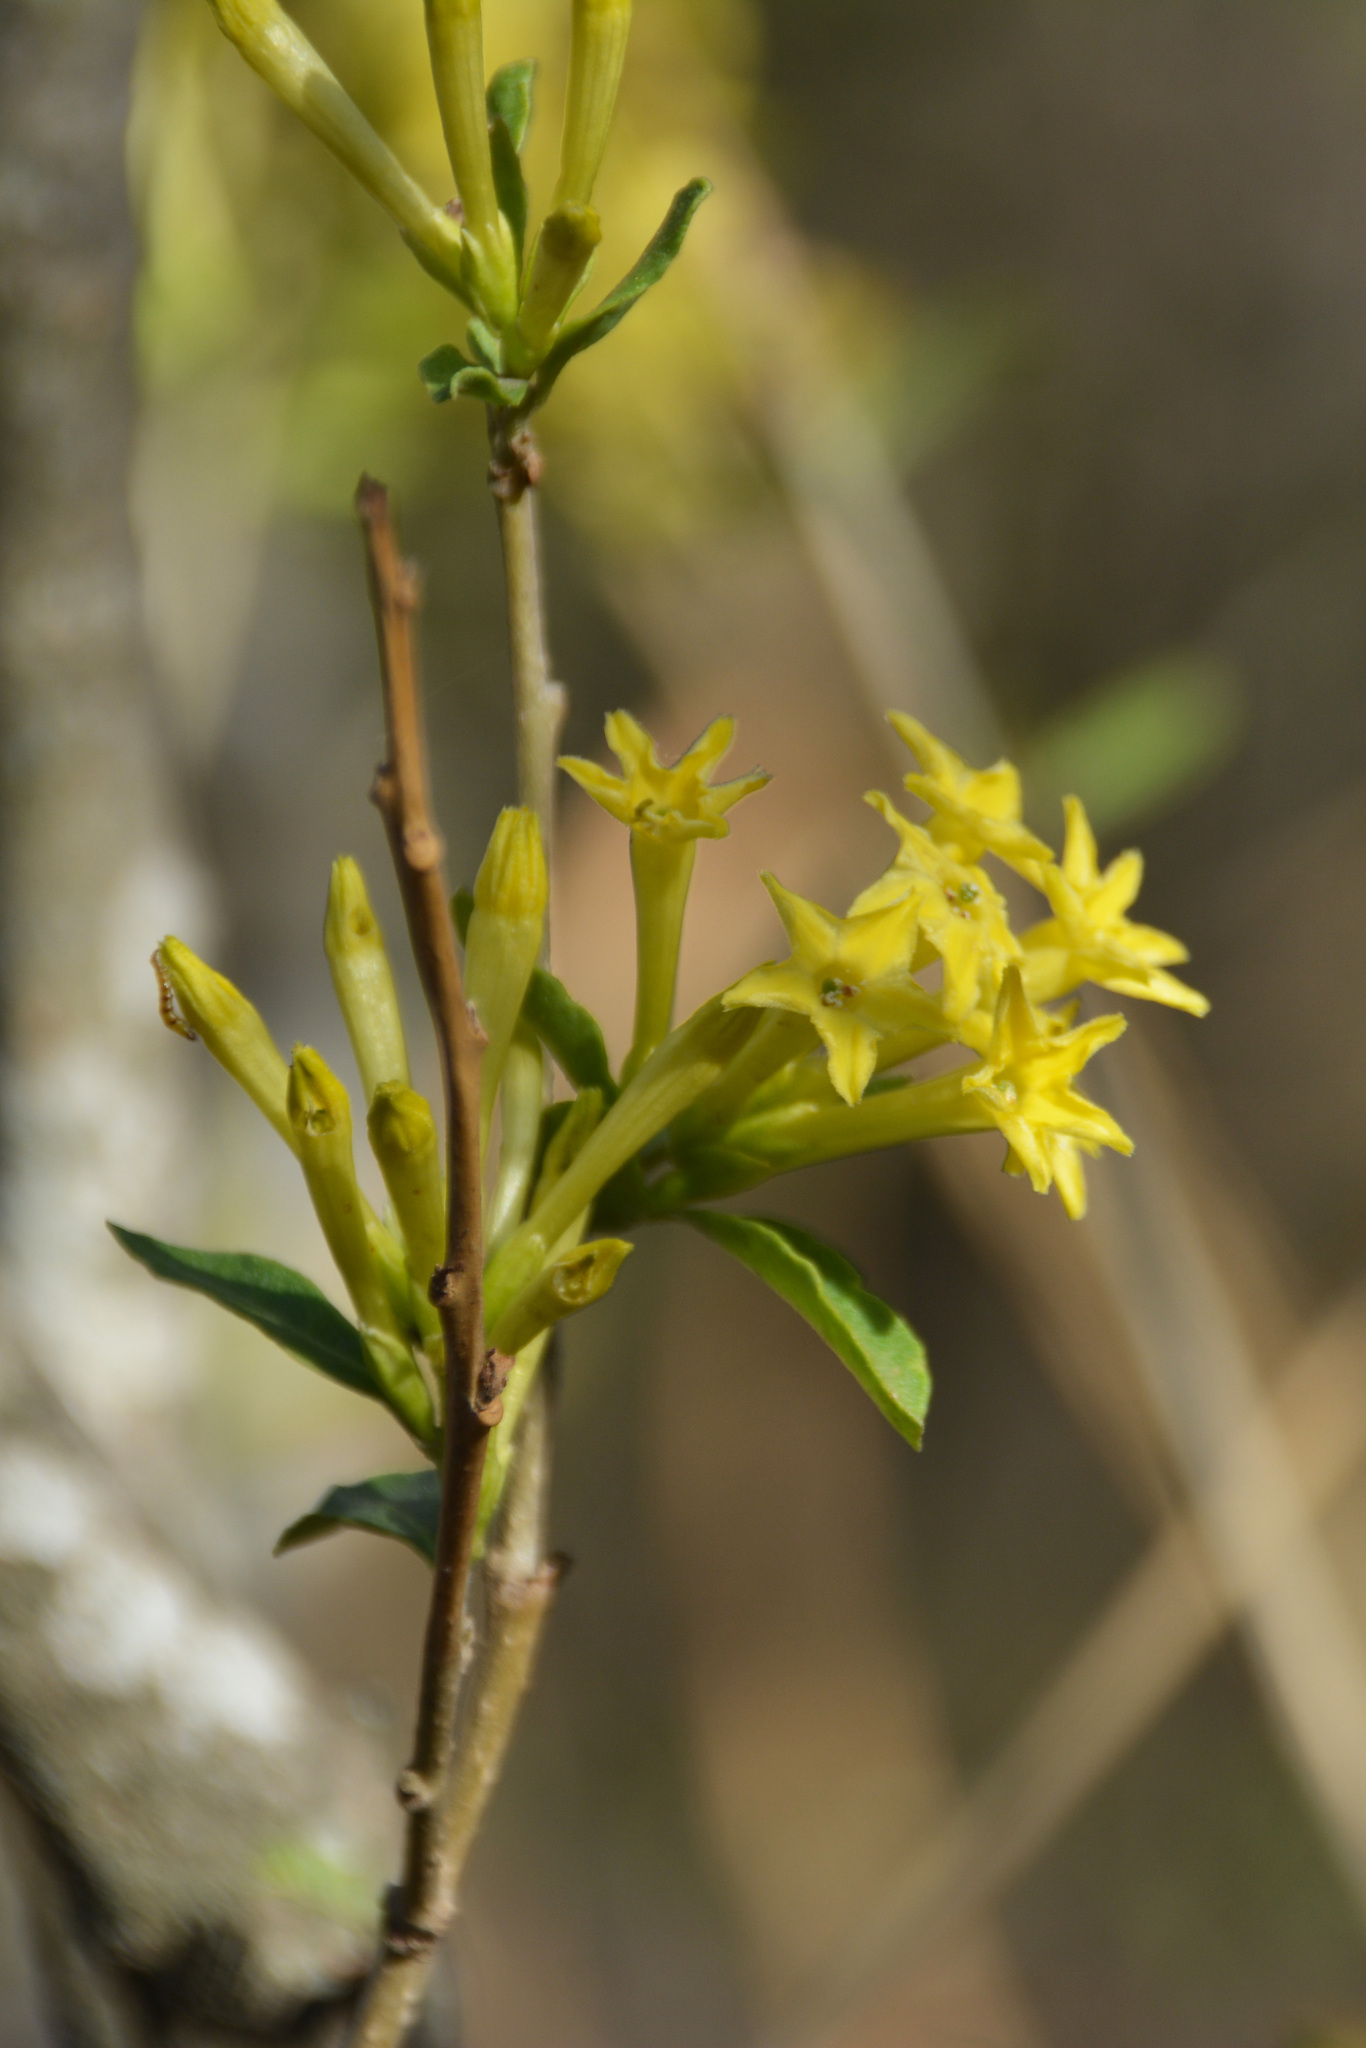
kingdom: Plantae
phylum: Tracheophyta
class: Magnoliopsida
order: Solanales
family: Solanaceae
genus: Cestrum
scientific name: Cestrum parqui
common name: Chilean cestrum
